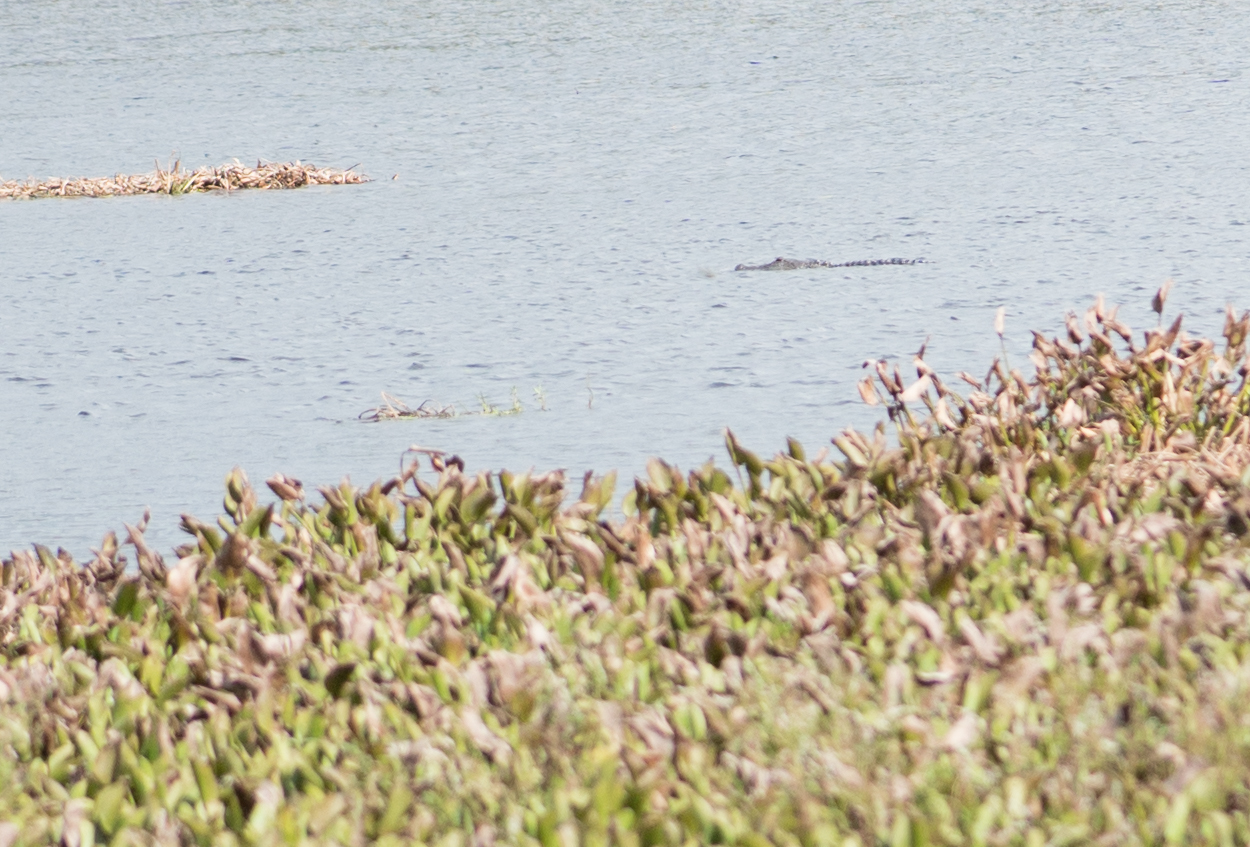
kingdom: Animalia
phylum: Chordata
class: Crocodylia
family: Alligatoridae
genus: Alligator
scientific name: Alligator mississippiensis
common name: American alligator
